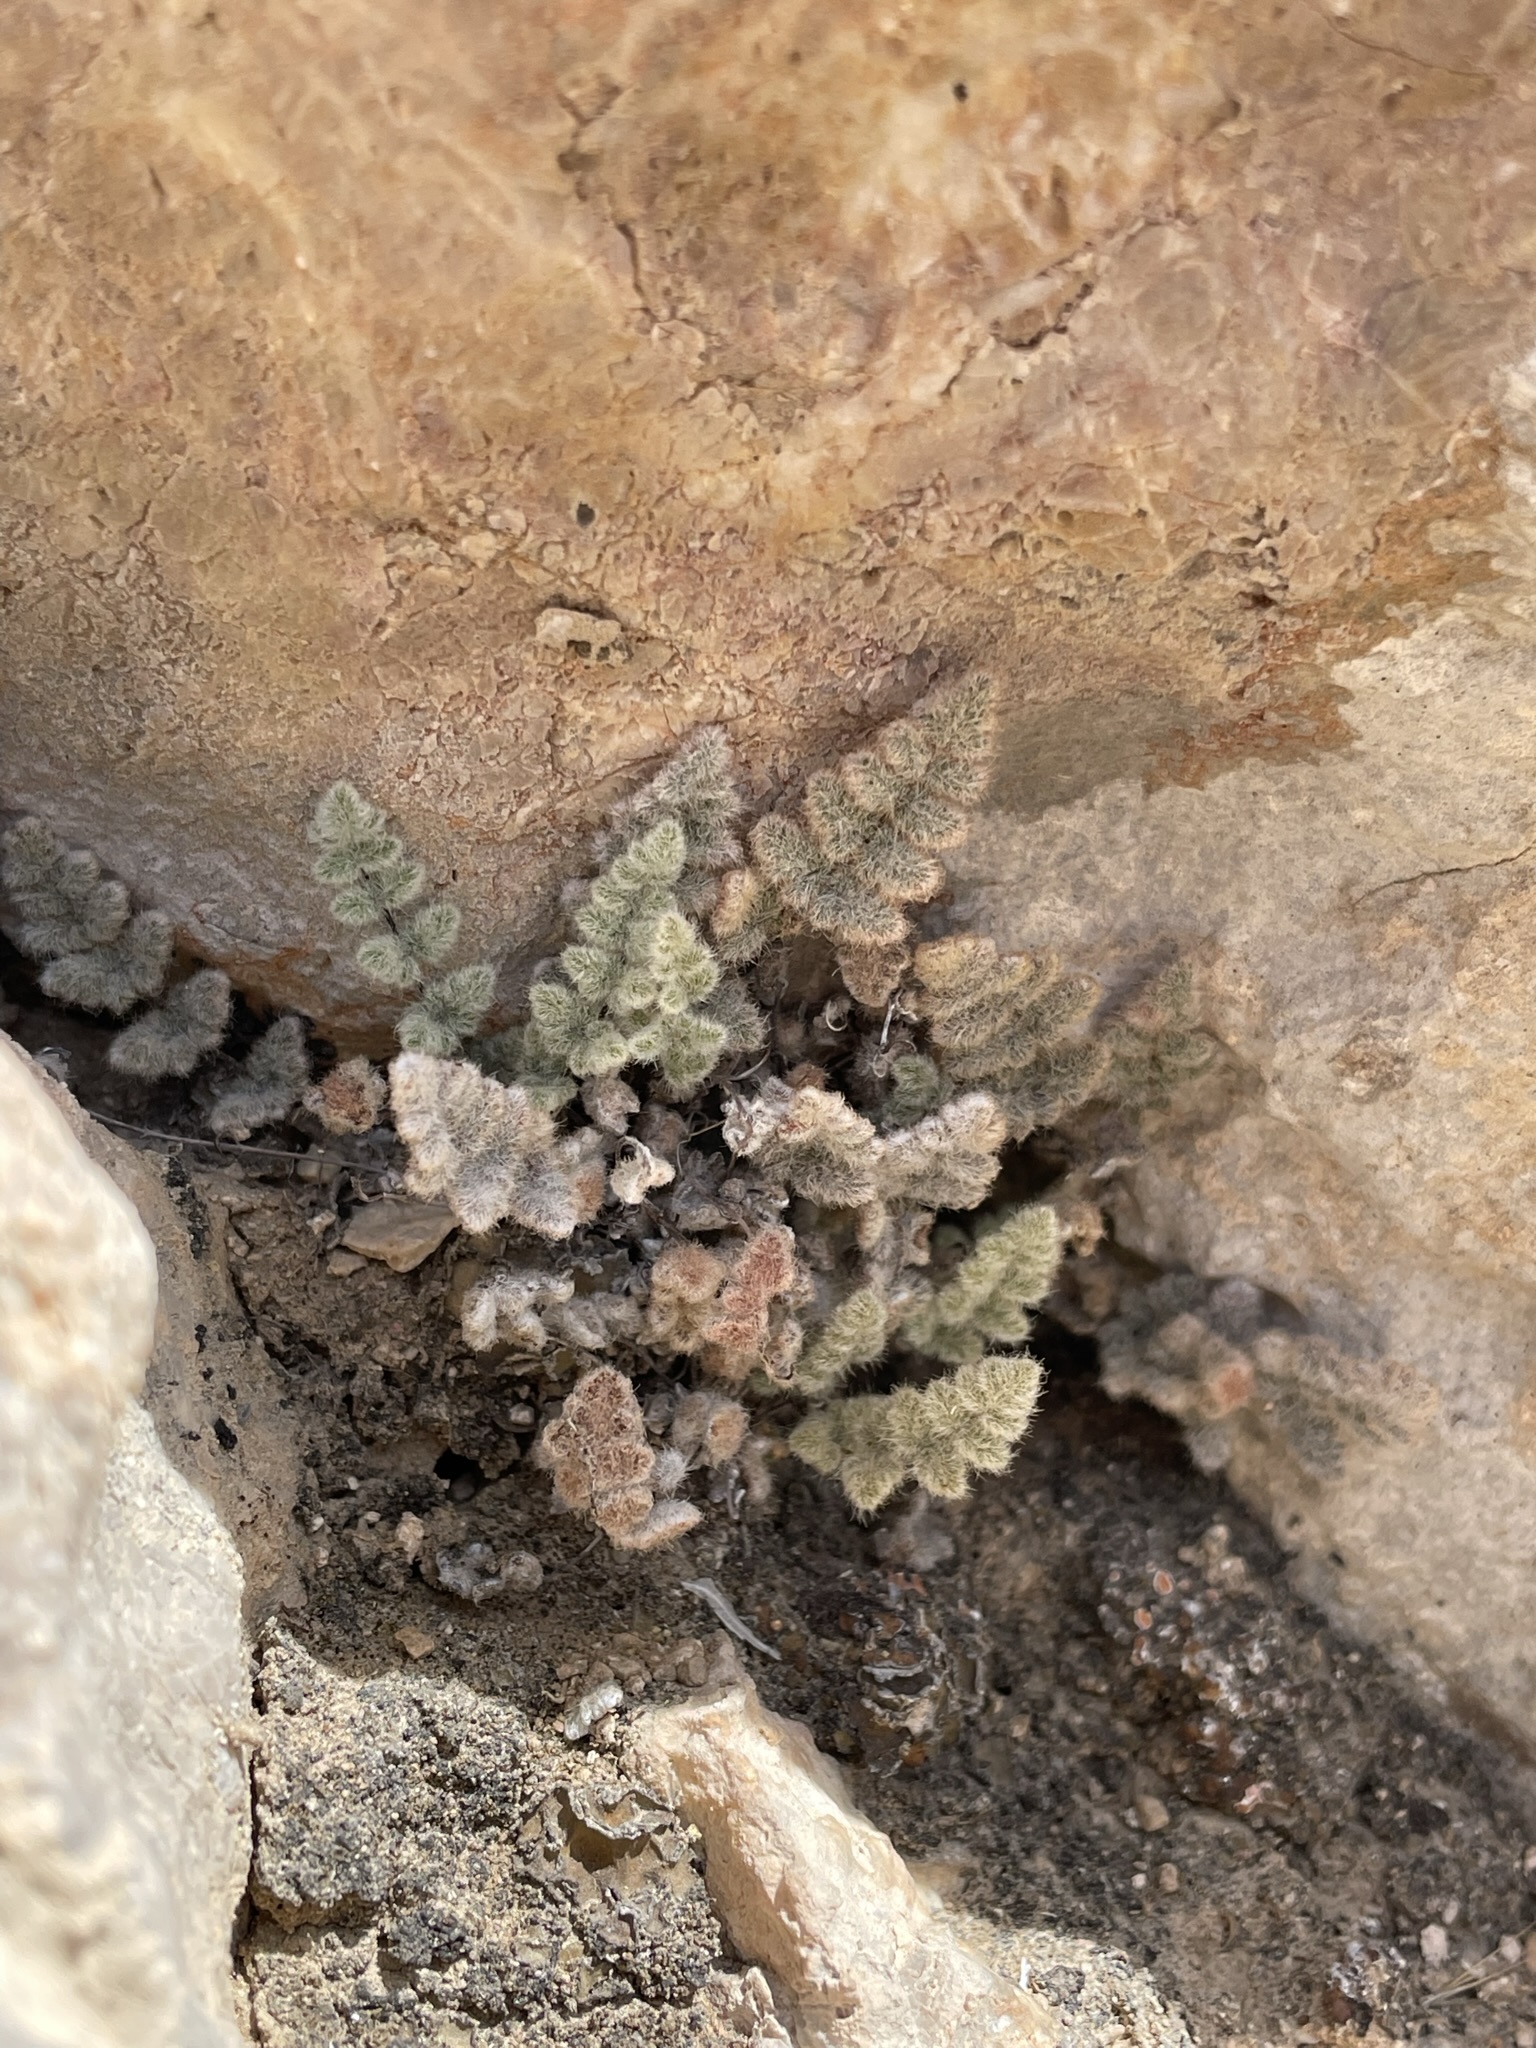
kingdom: Plantae
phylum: Tracheophyta
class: Polypodiopsida
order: Polypodiales
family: Pteridaceae
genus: Myriopteris
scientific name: Myriopteris parryi
